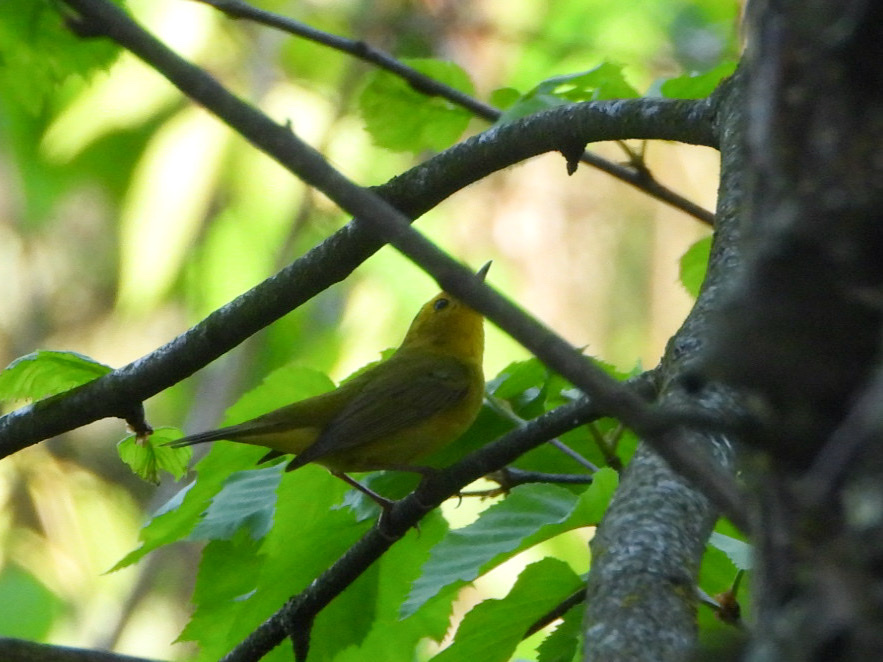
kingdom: Animalia
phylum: Chordata
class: Aves
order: Passeriformes
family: Parulidae
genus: Cardellina
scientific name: Cardellina pusilla
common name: Wilson's warbler
